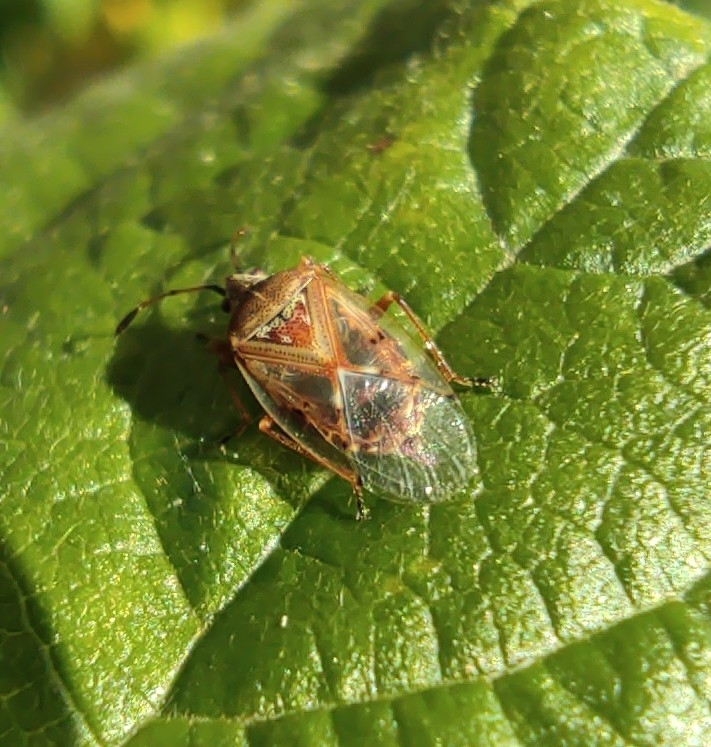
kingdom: Animalia
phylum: Arthropoda
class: Insecta
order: Hemiptera
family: Lygaeidae
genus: Kleidocerys
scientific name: Kleidocerys resedae
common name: Birch catkin bug
